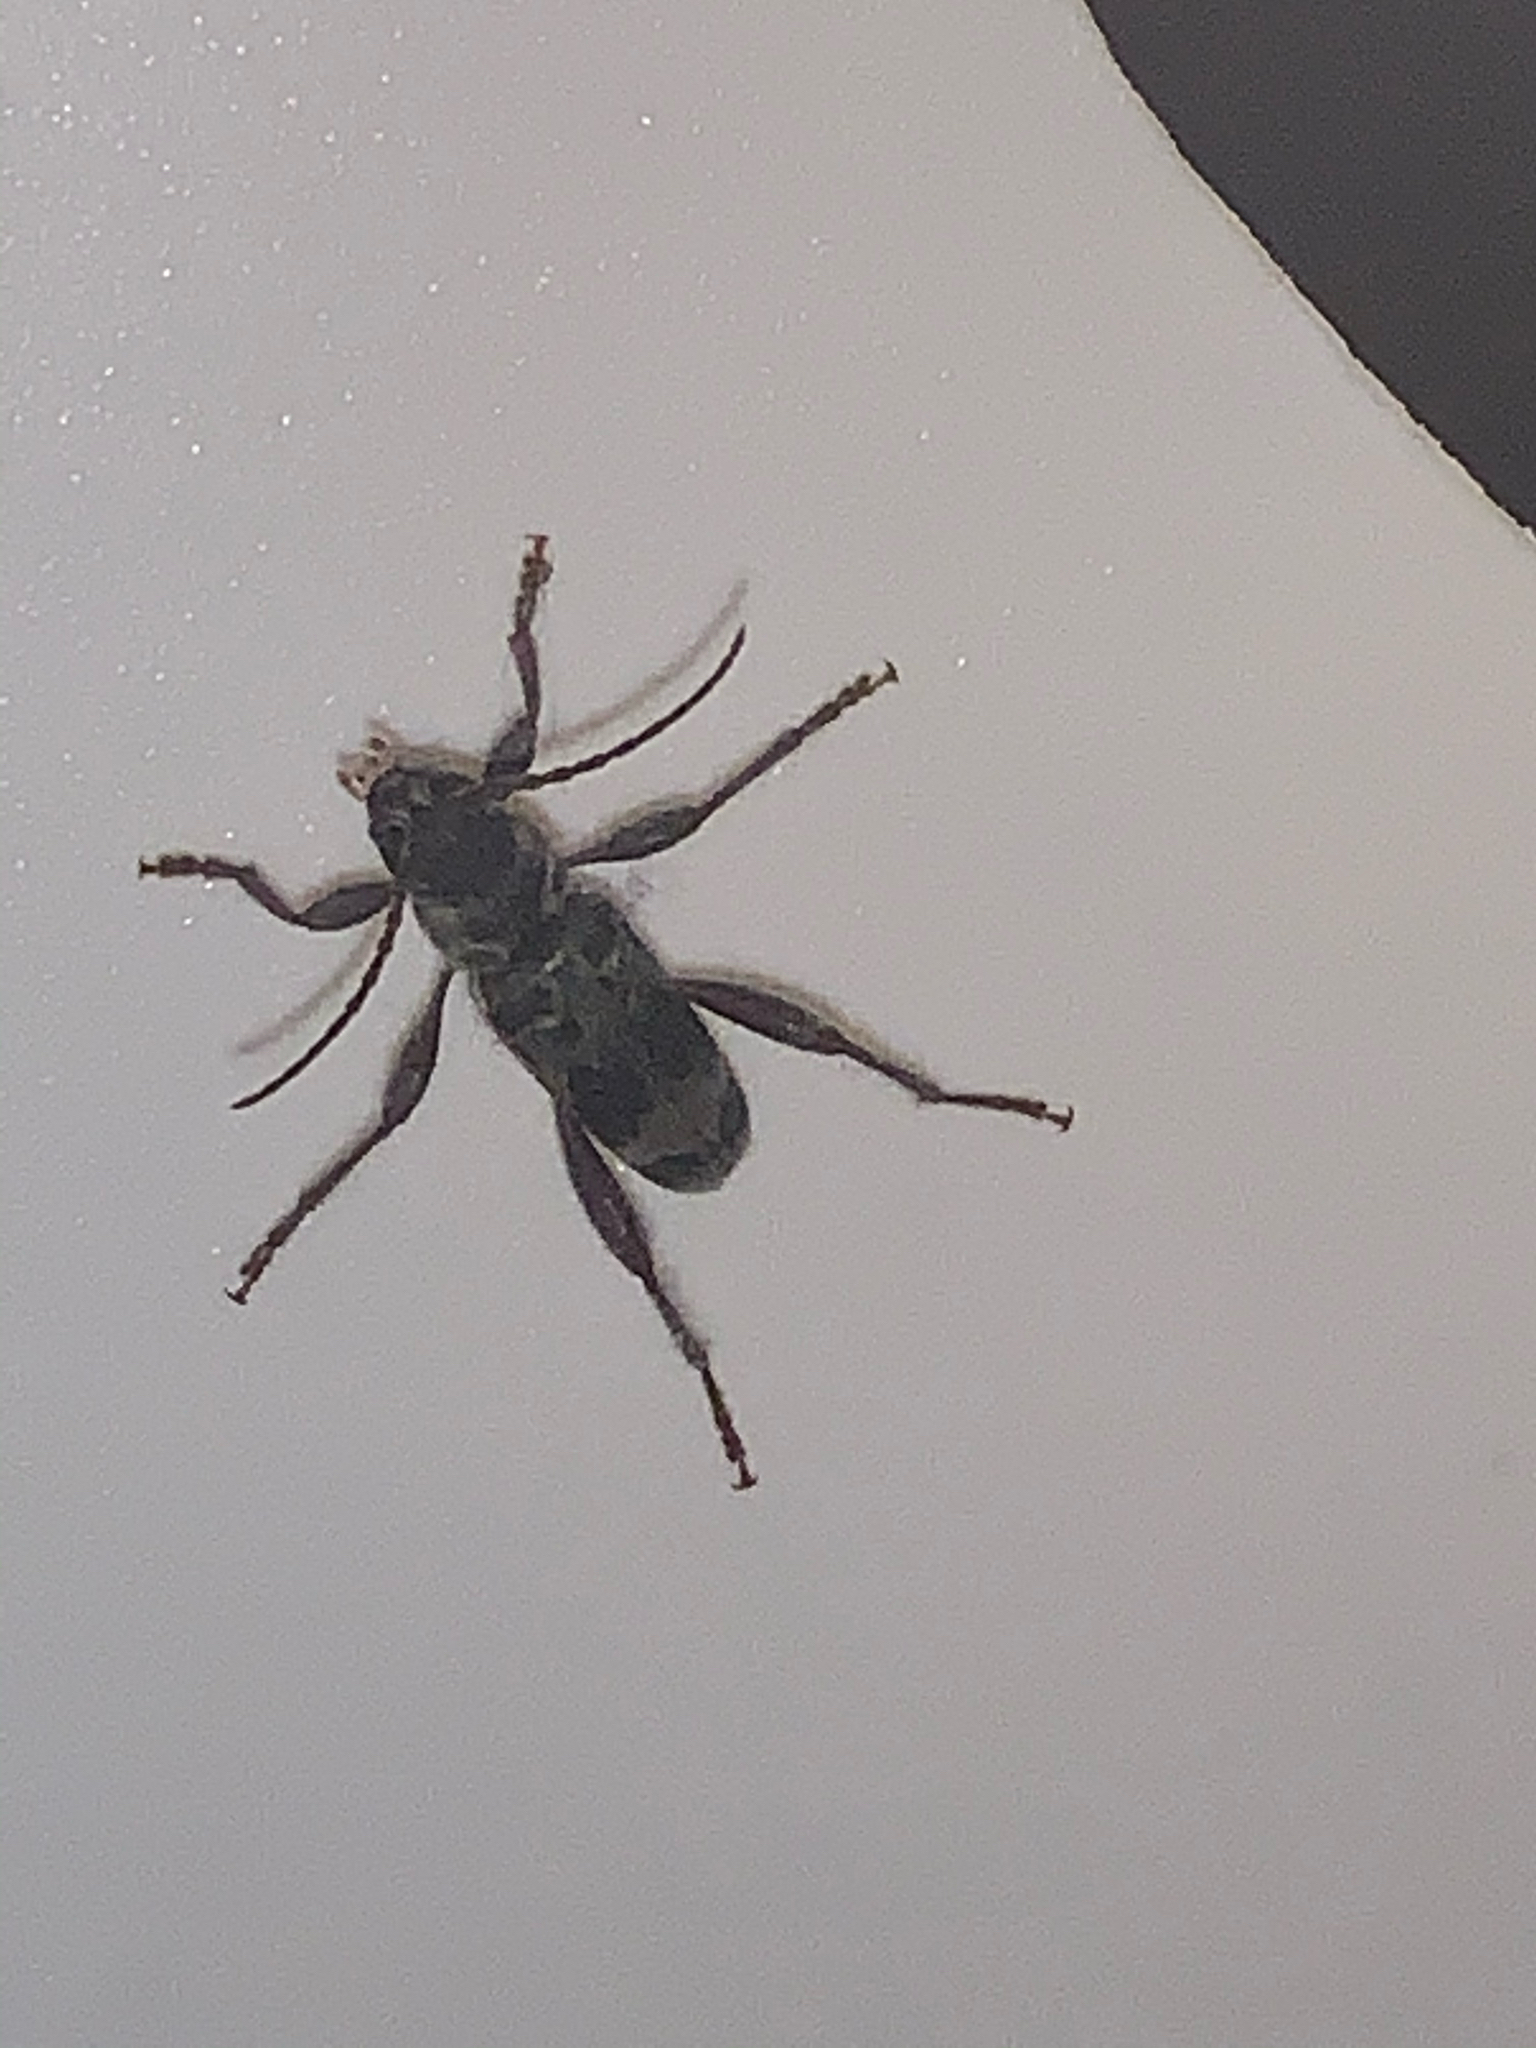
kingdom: Animalia
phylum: Arthropoda
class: Insecta
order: Coleoptera
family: Cerambycidae
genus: Xylotrechus
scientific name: Xylotrechus colonus
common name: Long-horned beetle
